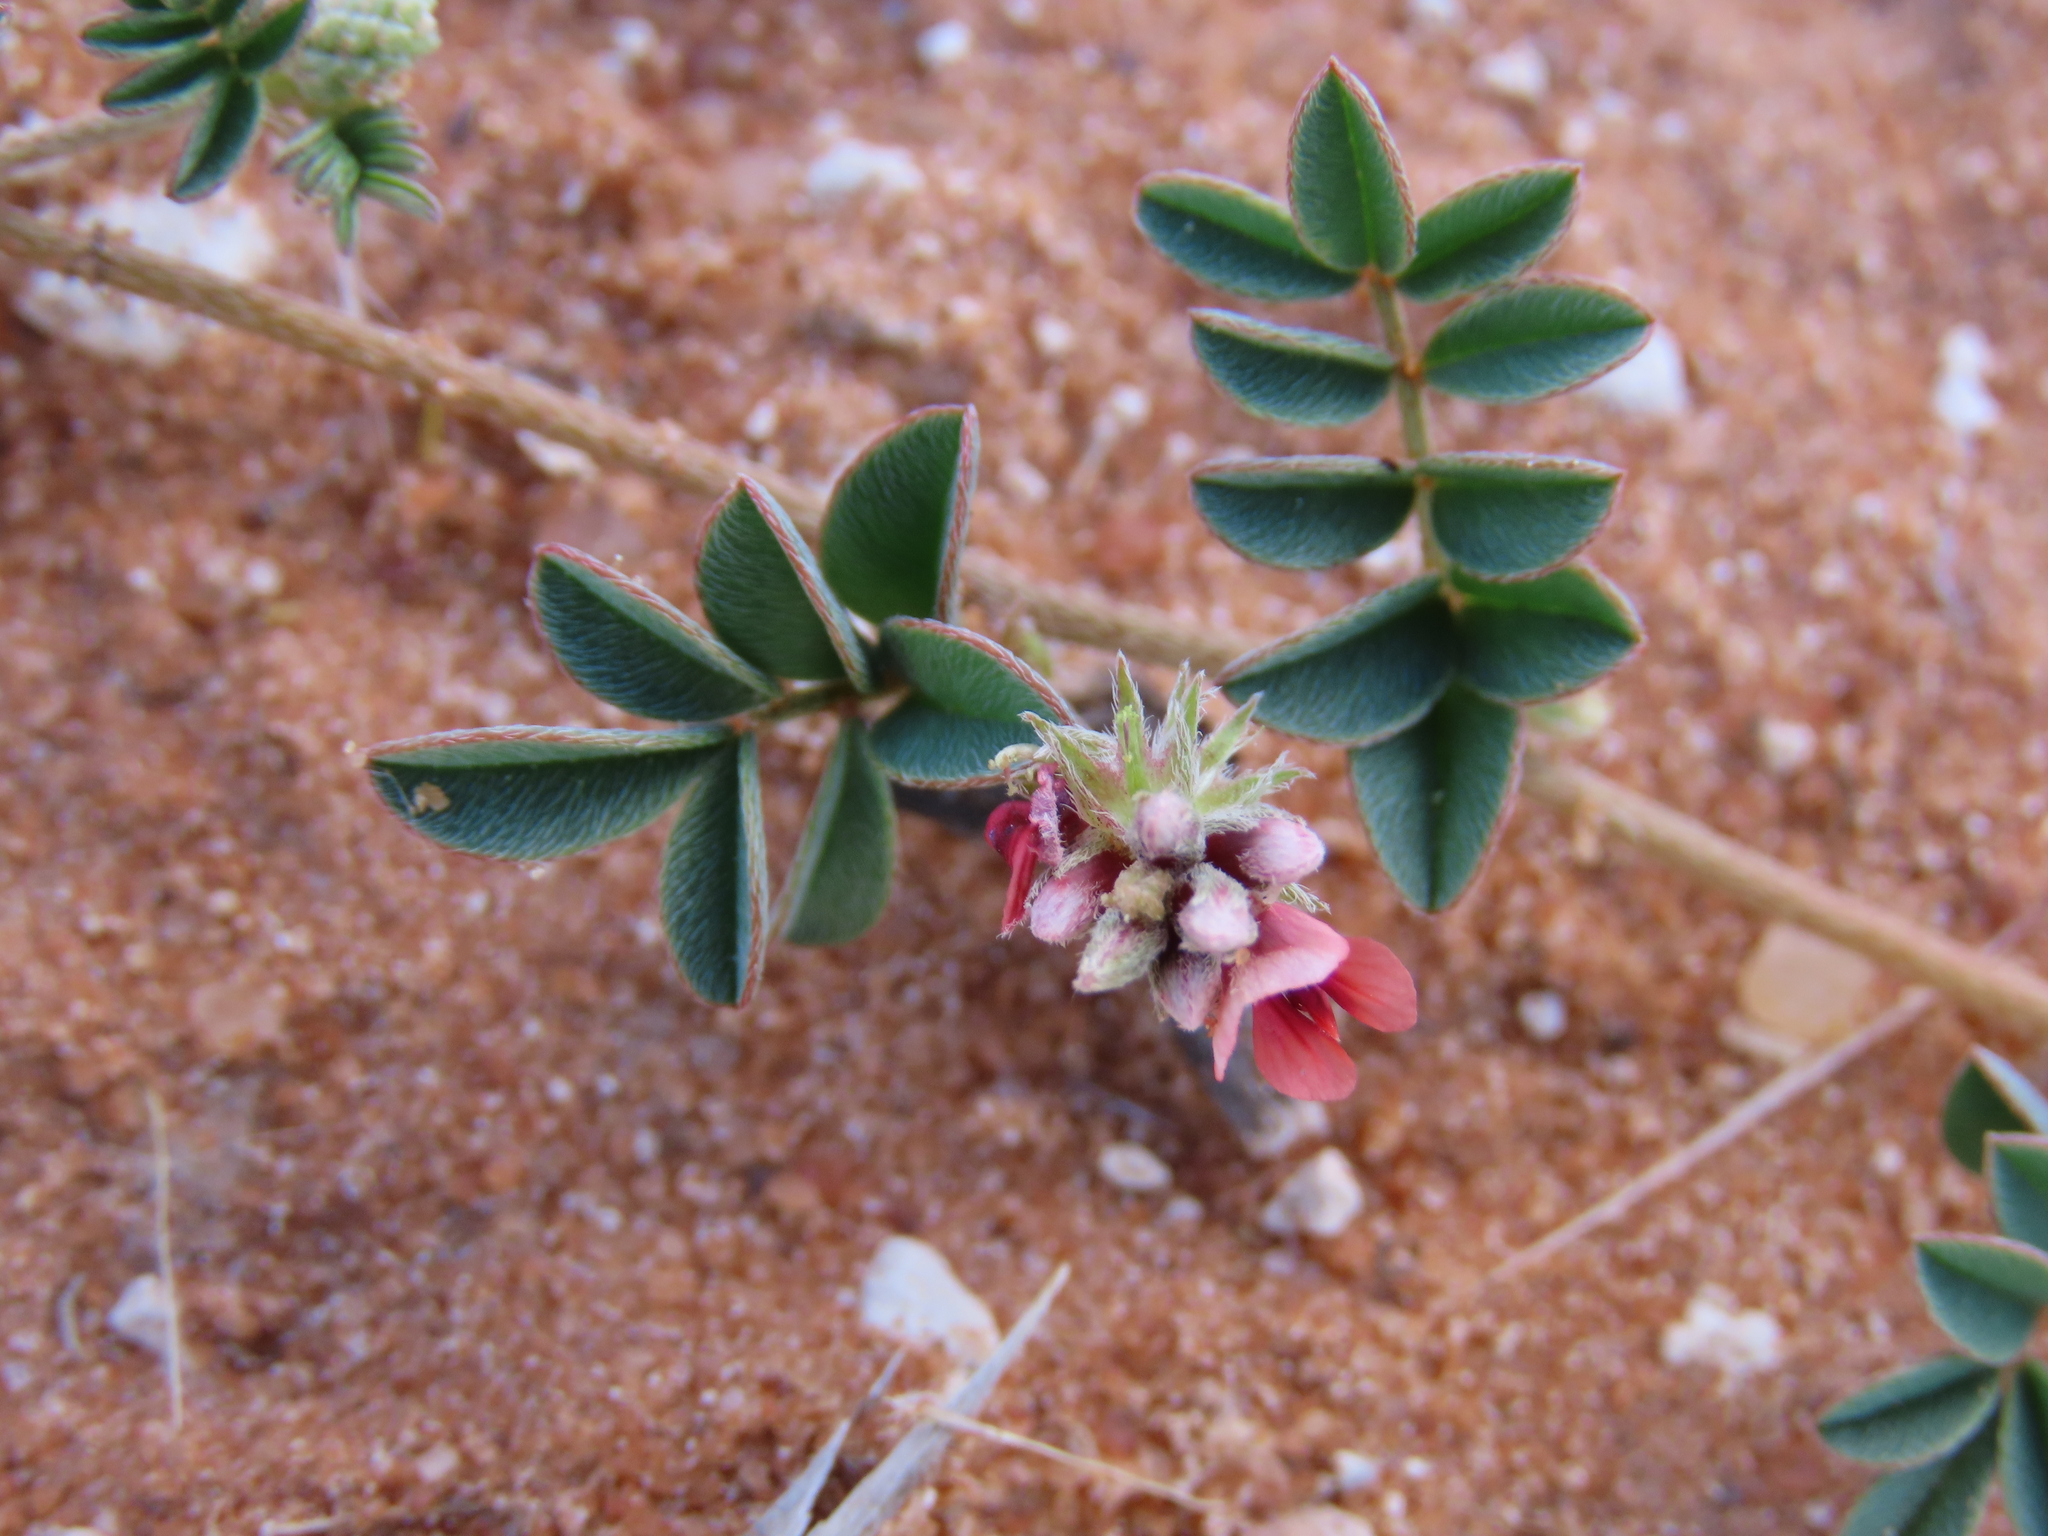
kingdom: Plantae
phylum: Tracheophyta
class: Magnoliopsida
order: Fabales
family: Fabaceae
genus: Indigofera
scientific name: Indigofera alternans
